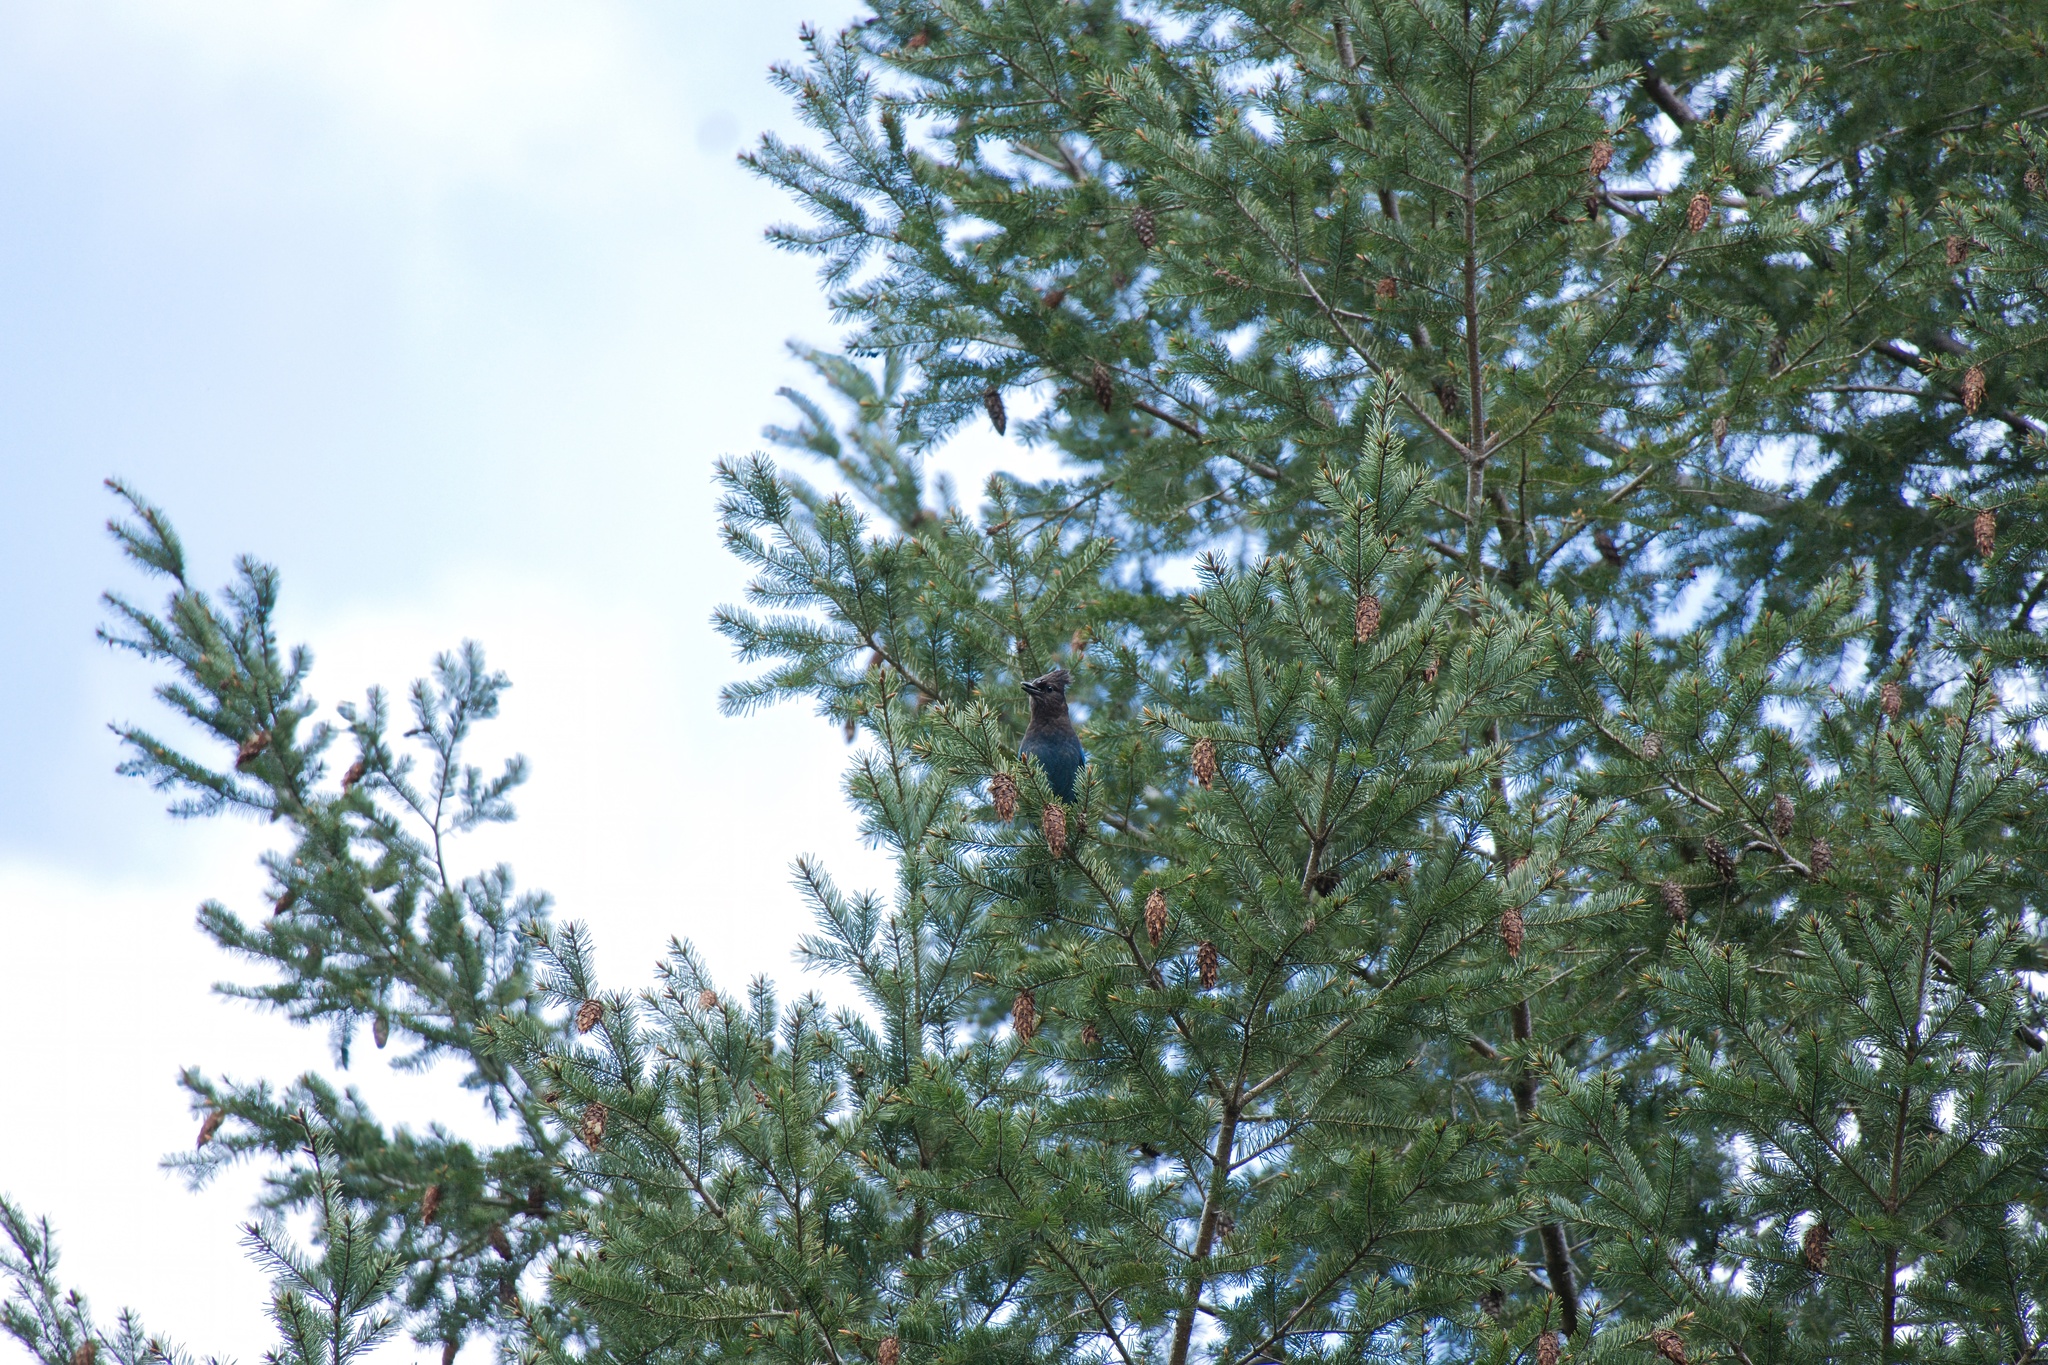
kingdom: Animalia
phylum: Chordata
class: Aves
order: Passeriformes
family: Corvidae
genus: Cyanocitta
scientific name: Cyanocitta stelleri
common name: Steller's jay
